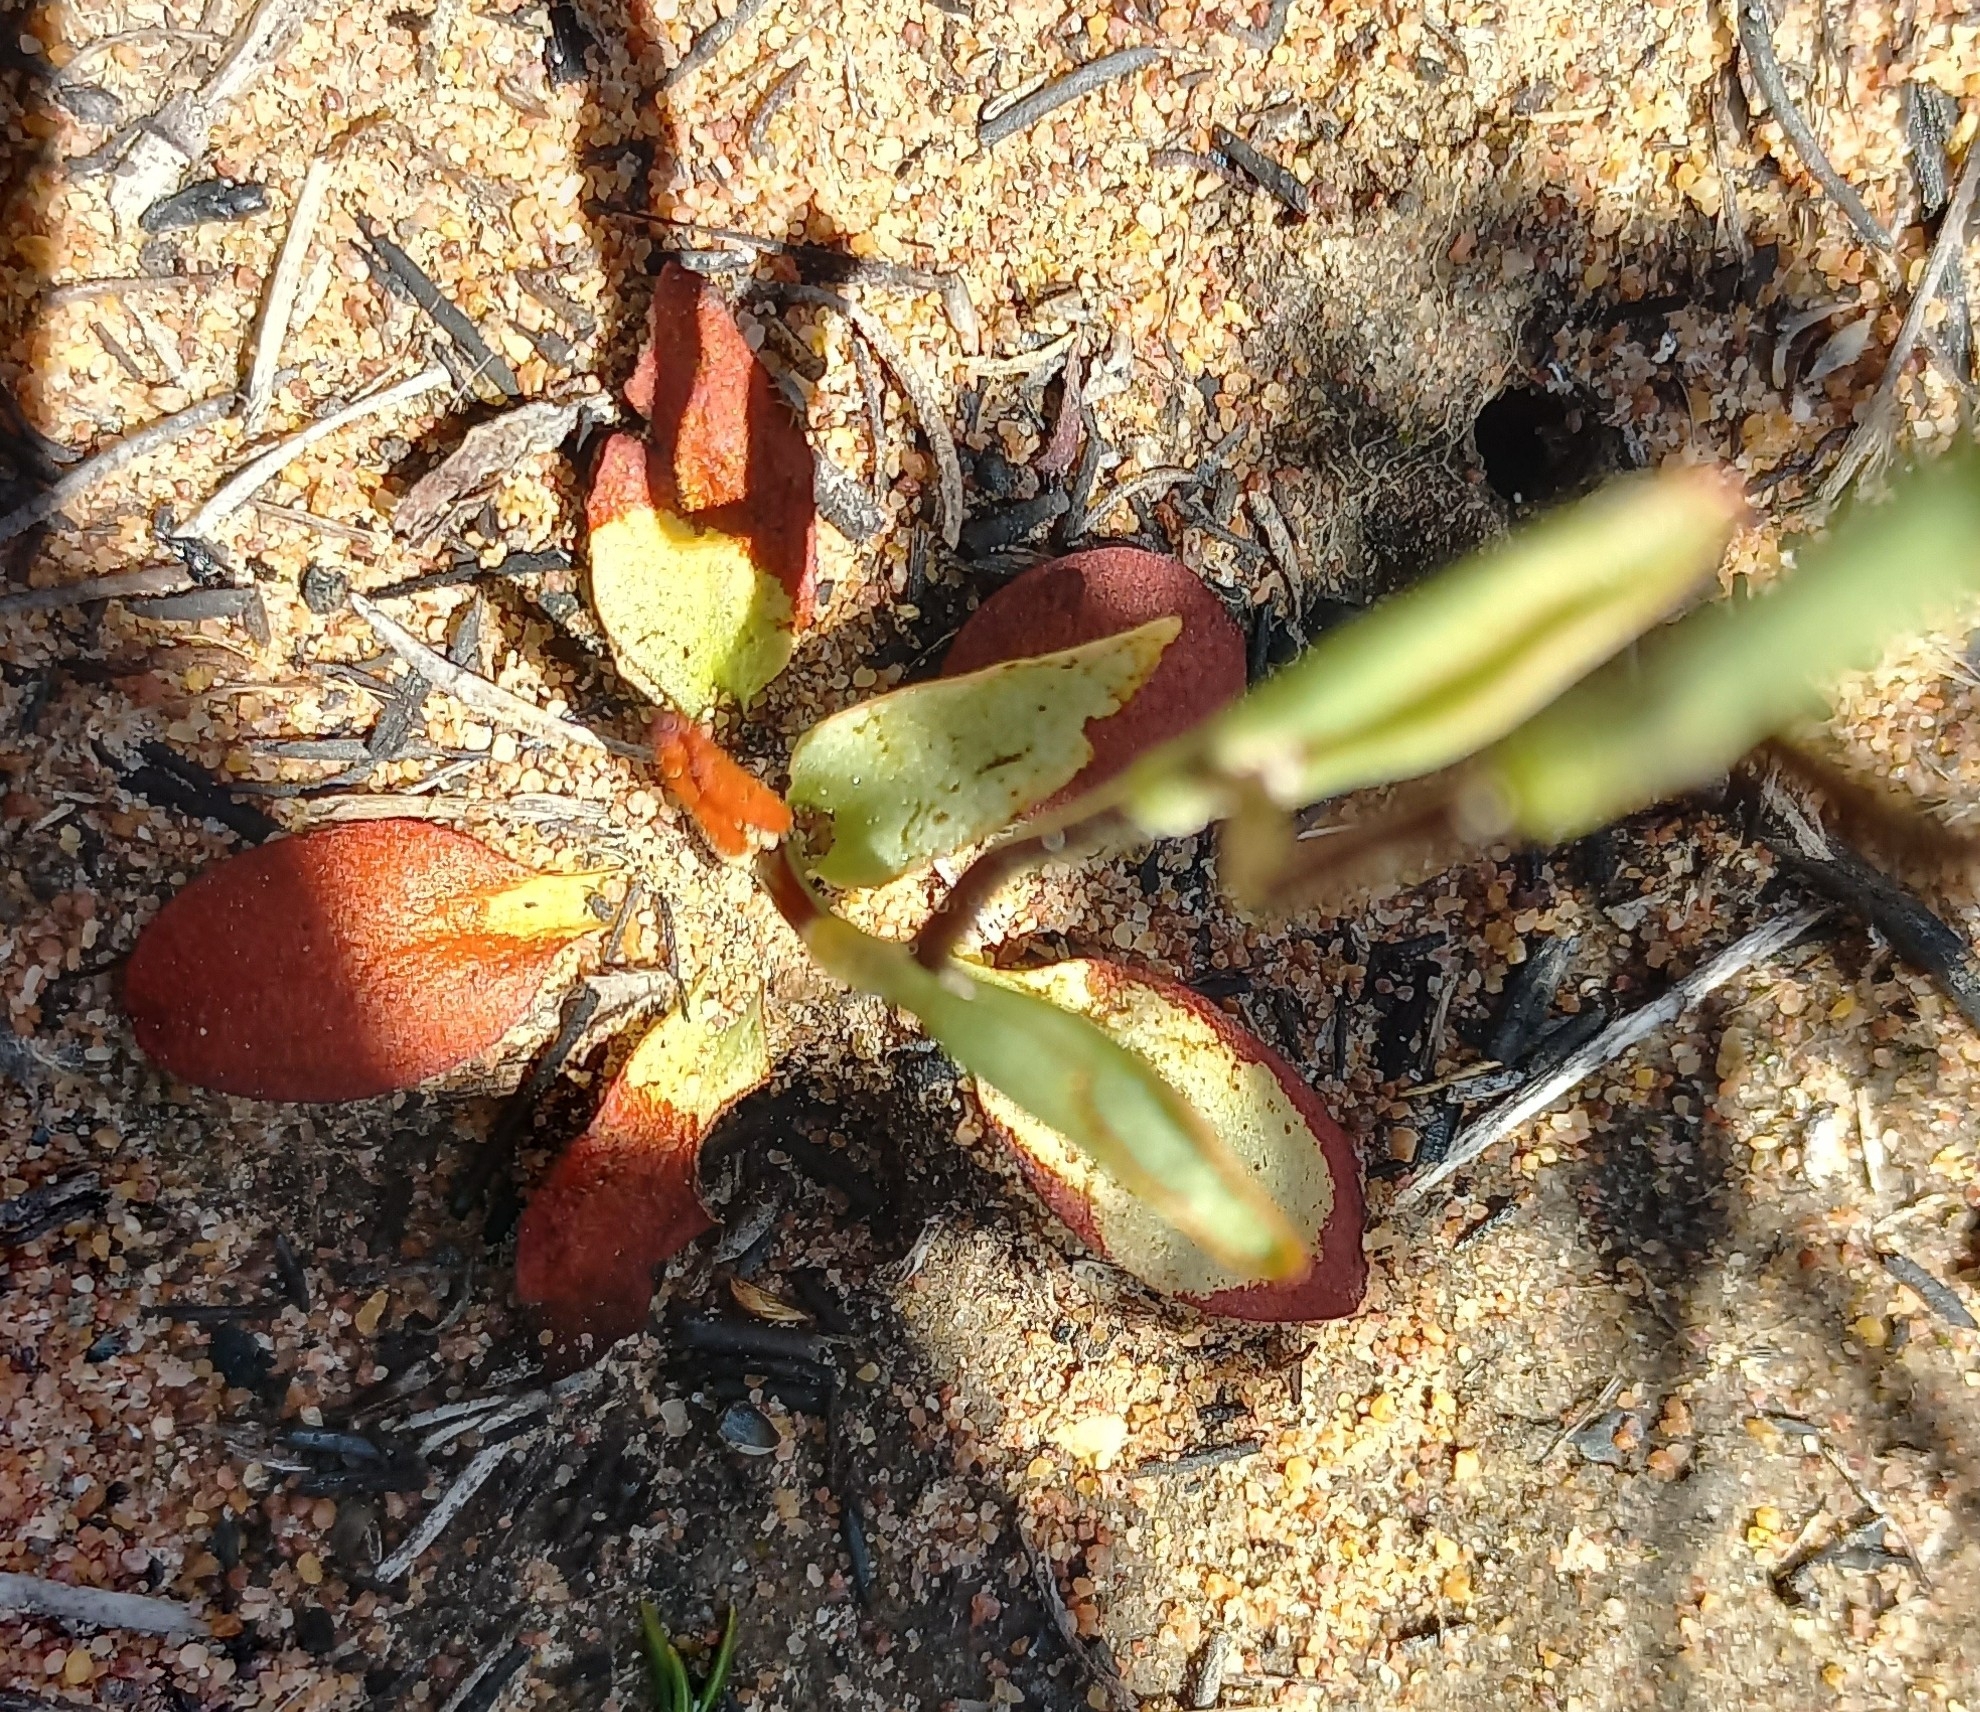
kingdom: Plantae
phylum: Tracheophyta
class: Liliopsida
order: Asparagales
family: Orchidaceae
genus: Disa
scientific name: Disa flexuosa
